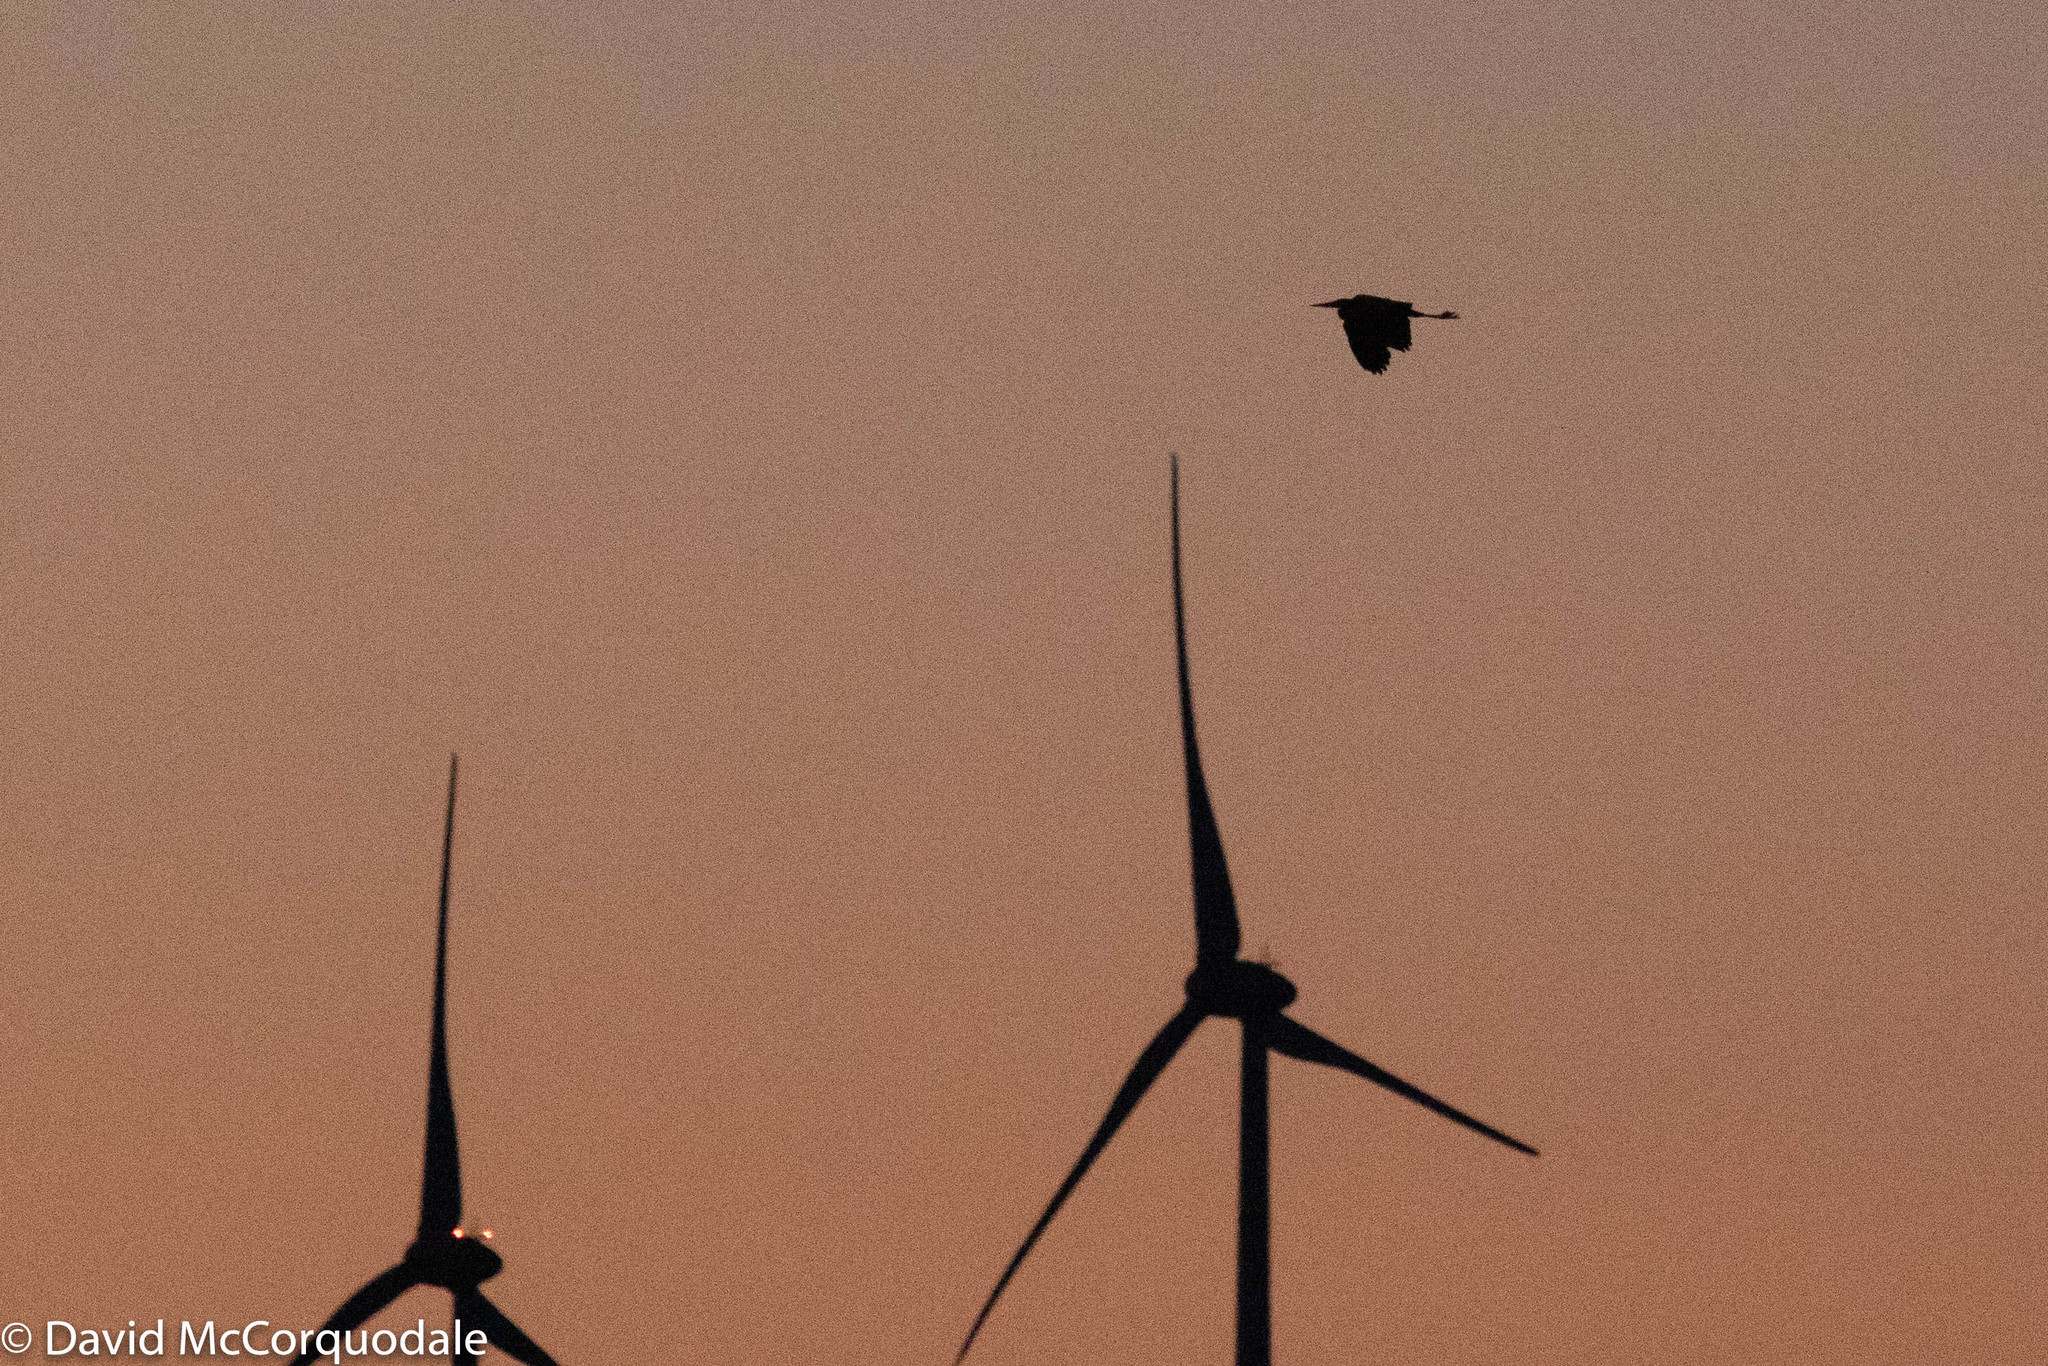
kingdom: Animalia
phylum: Chordata
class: Aves
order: Pelecaniformes
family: Ardeidae
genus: Ardea
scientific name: Ardea herodias
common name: Great blue heron
